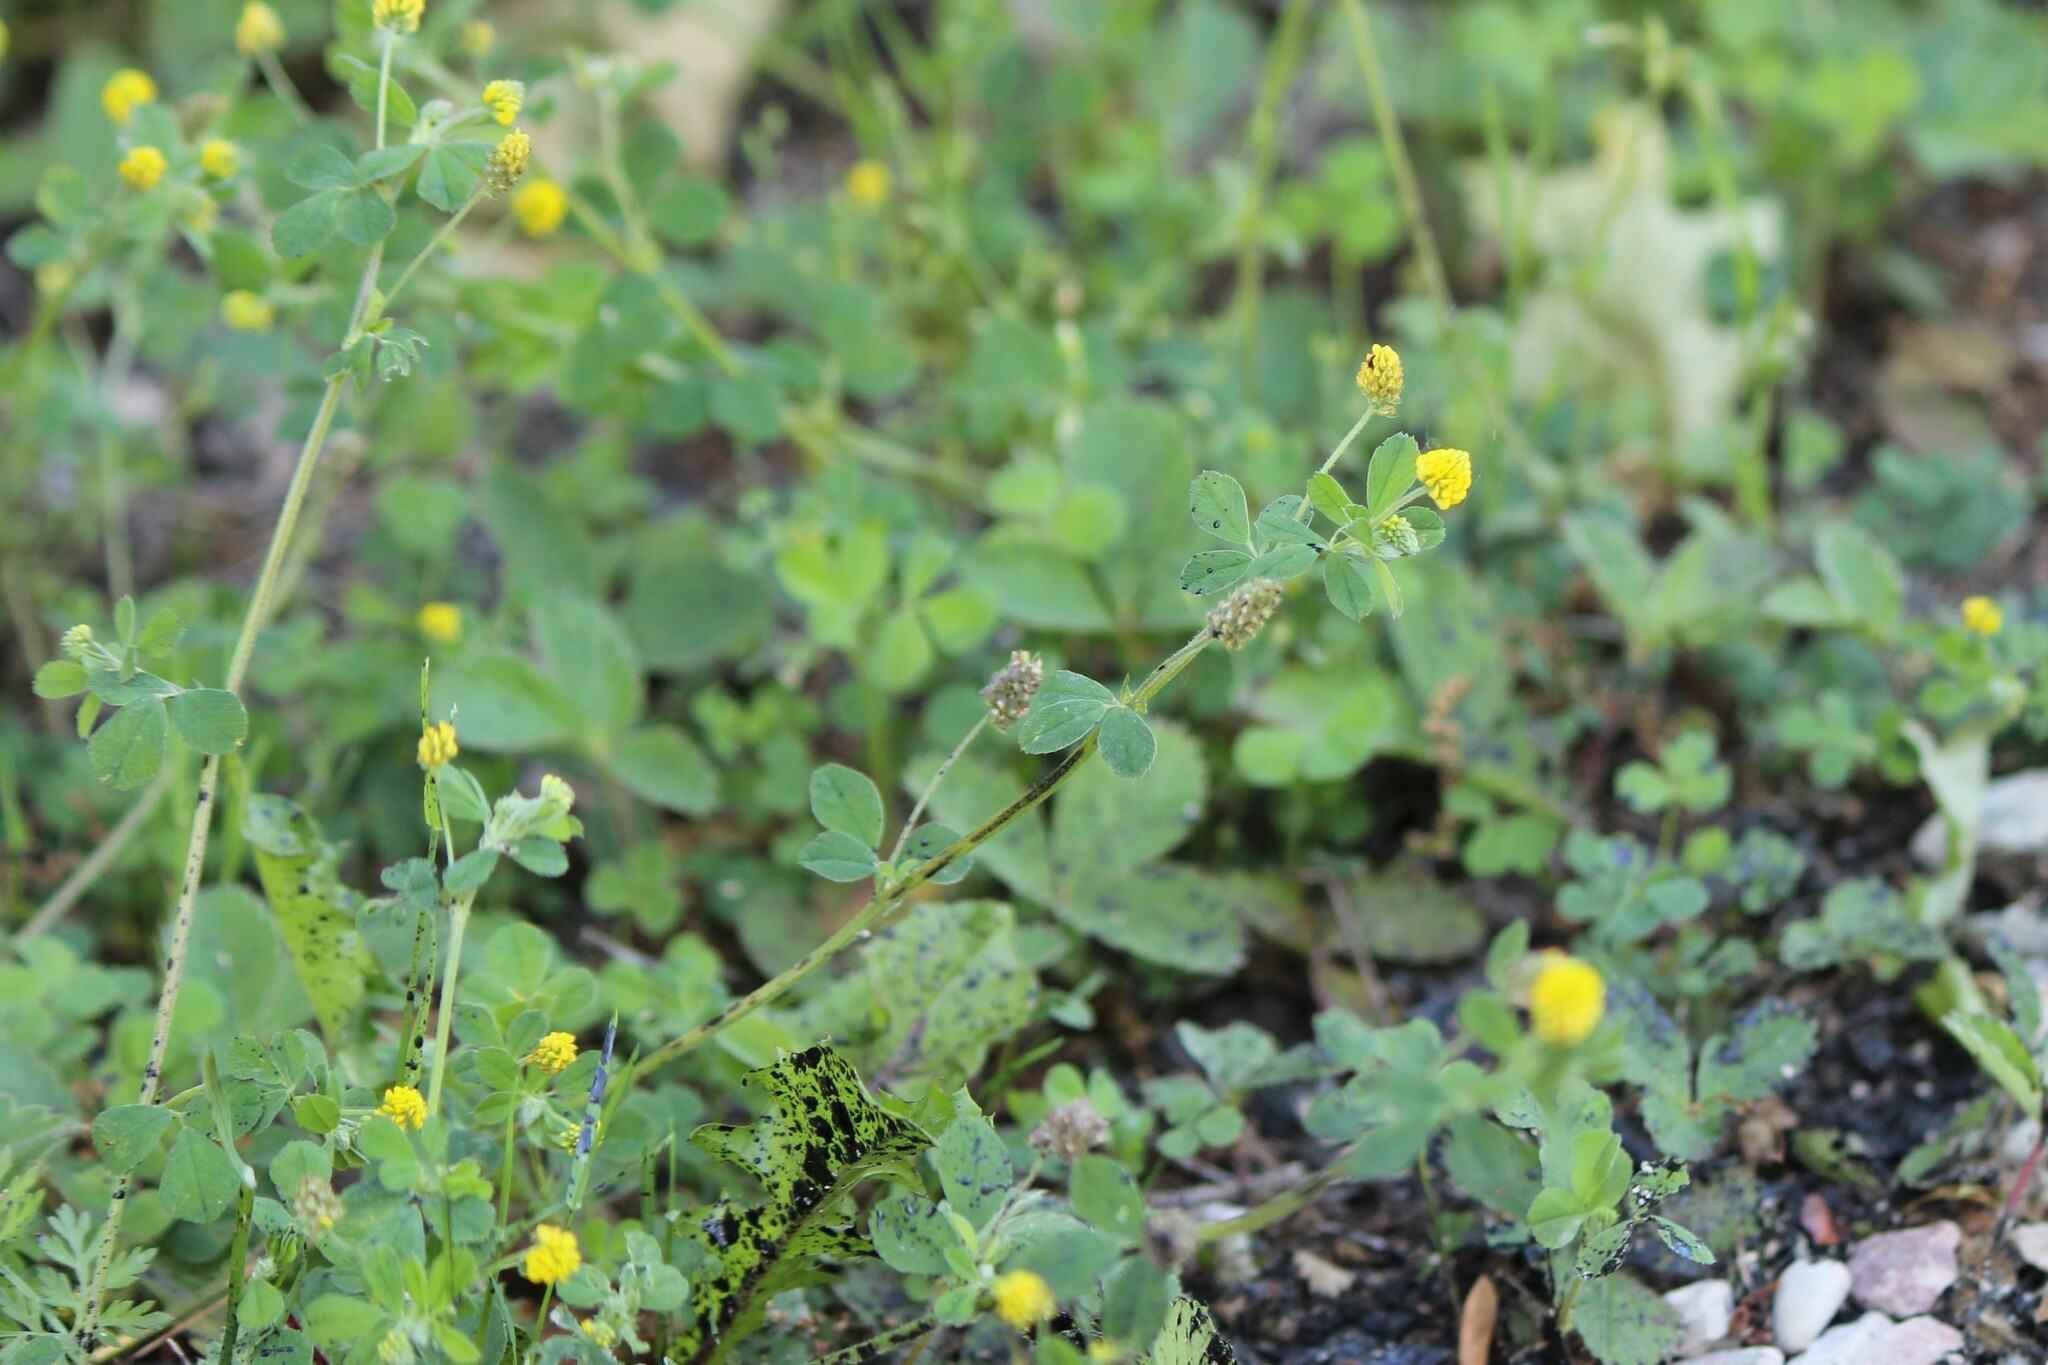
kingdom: Plantae
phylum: Tracheophyta
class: Magnoliopsida
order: Fabales
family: Fabaceae
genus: Medicago
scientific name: Medicago lupulina
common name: Black medick
